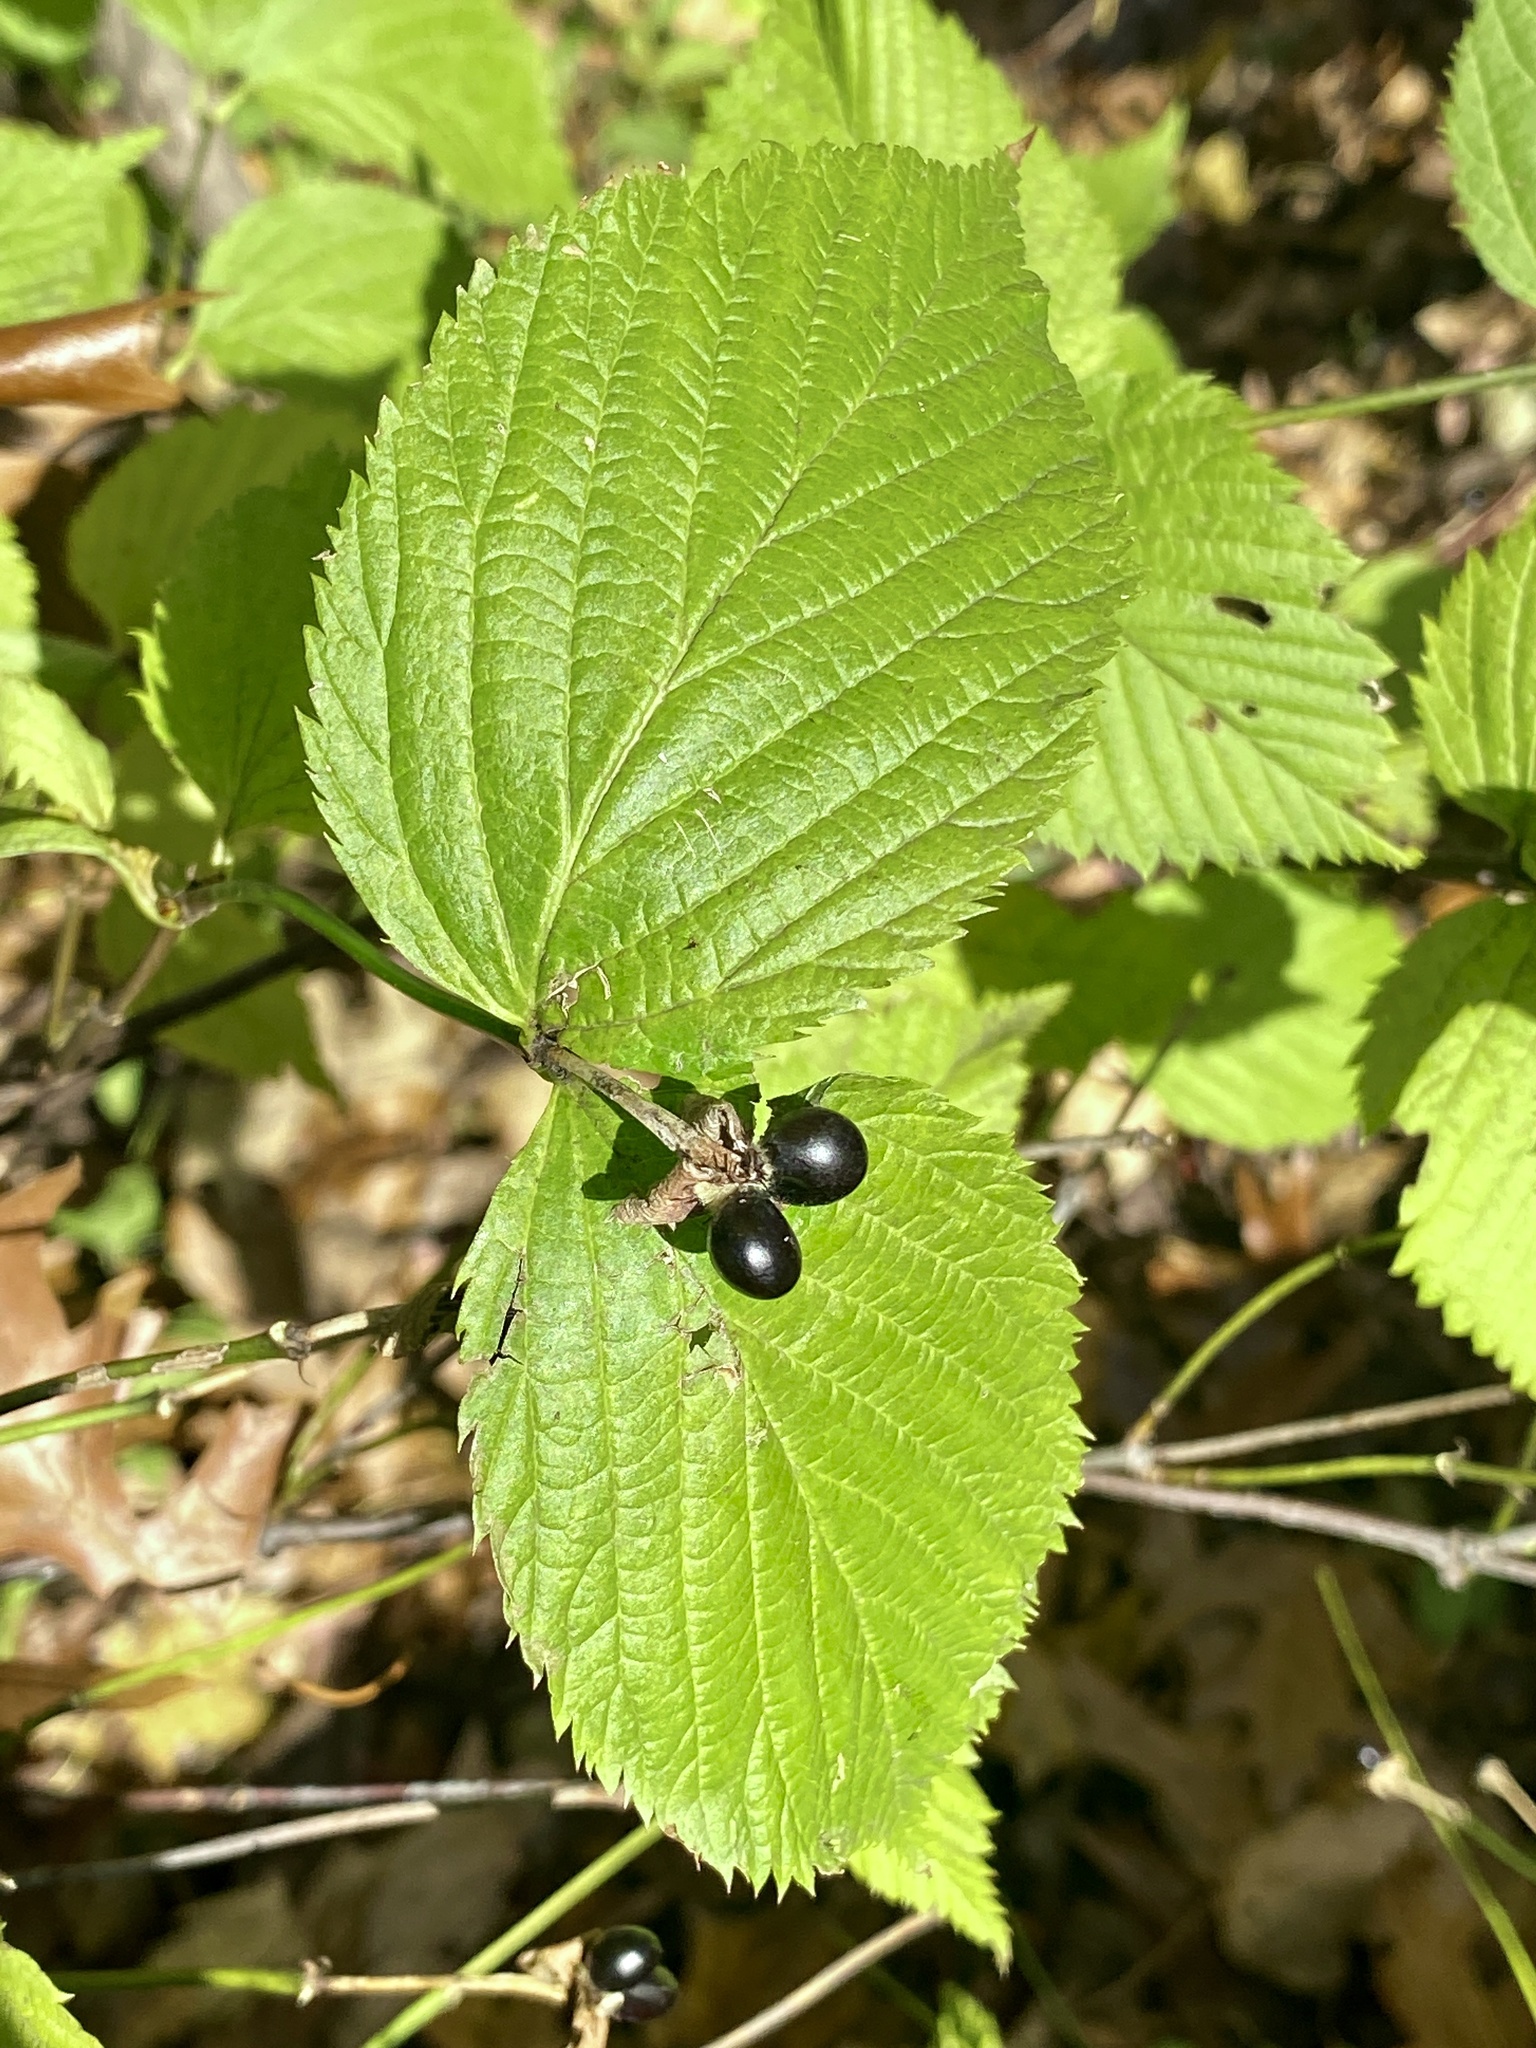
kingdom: Plantae
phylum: Tracheophyta
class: Magnoliopsida
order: Rosales
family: Rosaceae
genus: Rhodotypos
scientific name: Rhodotypos scandens
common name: Jetbead
